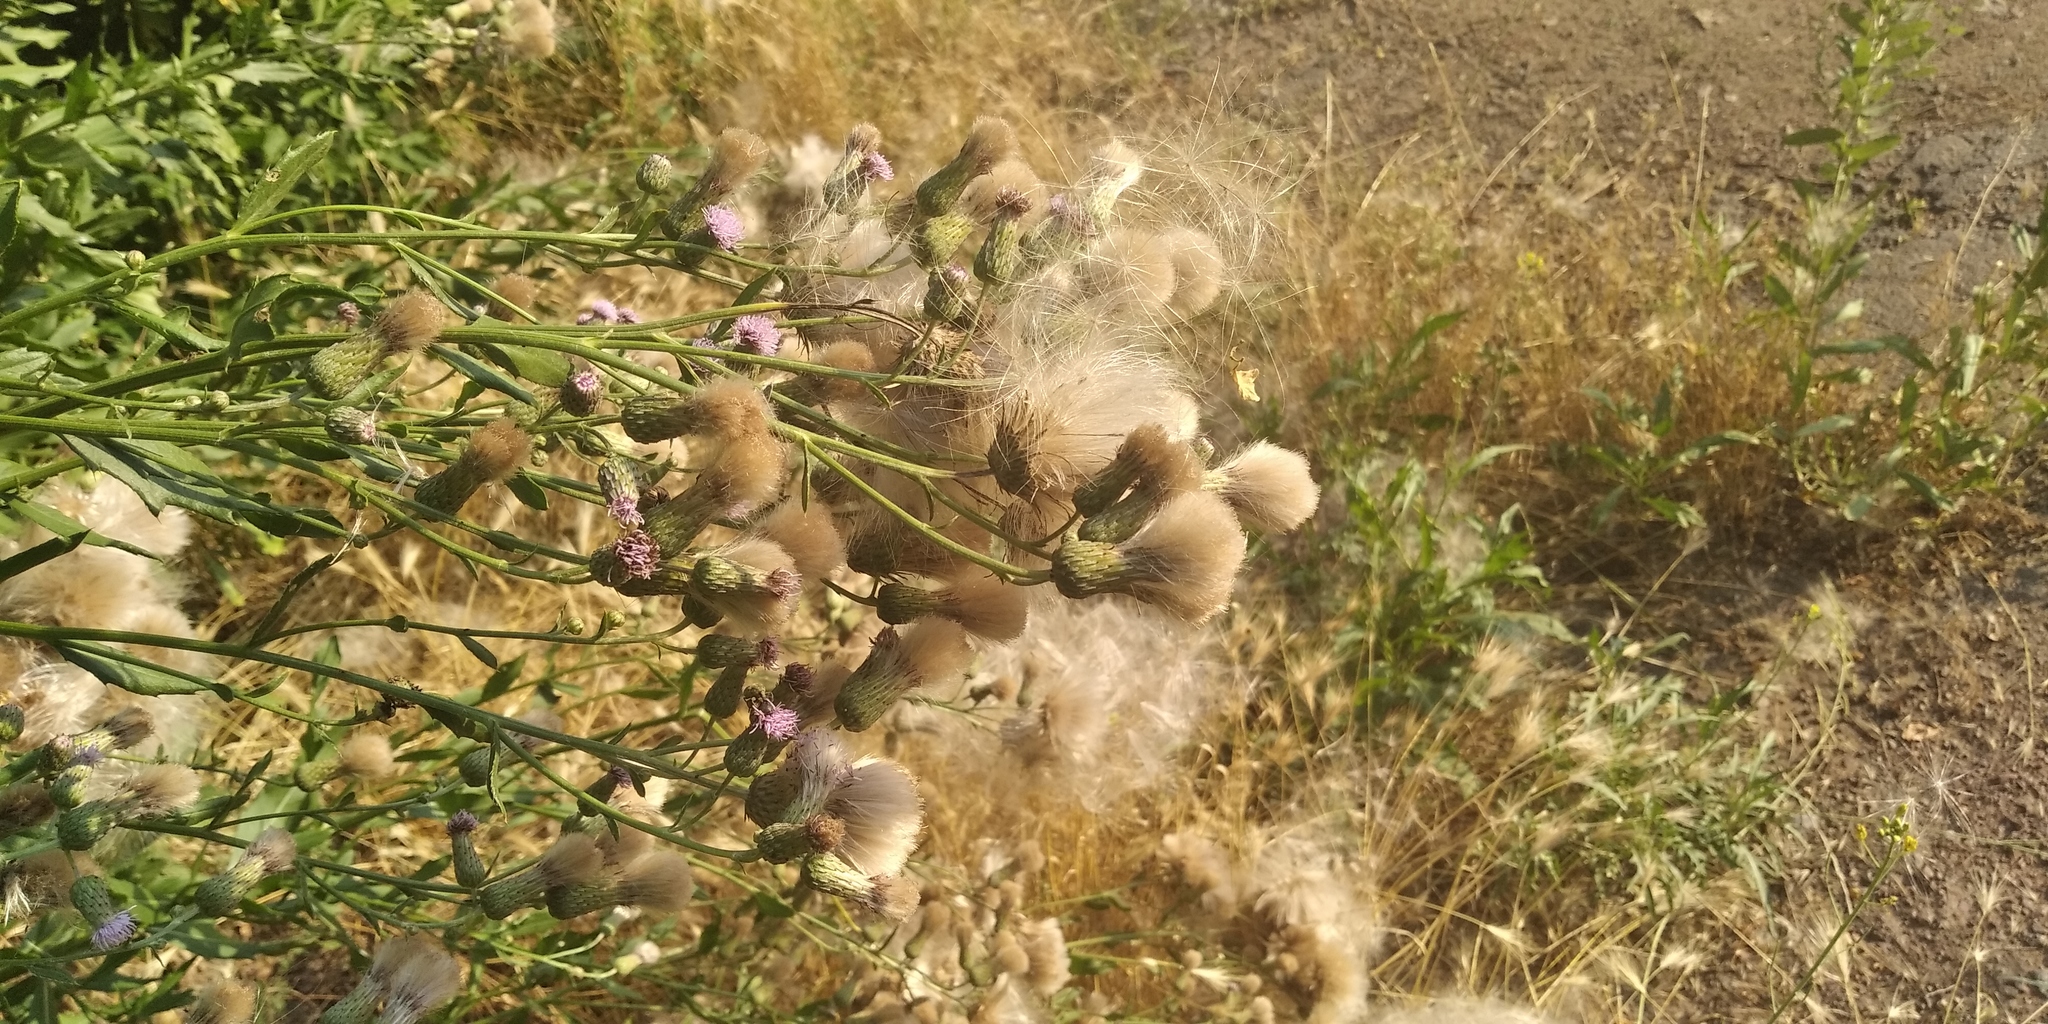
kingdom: Plantae
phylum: Tracheophyta
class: Magnoliopsida
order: Asterales
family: Asteraceae
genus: Cirsium
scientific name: Cirsium arvense
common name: Creeping thistle
